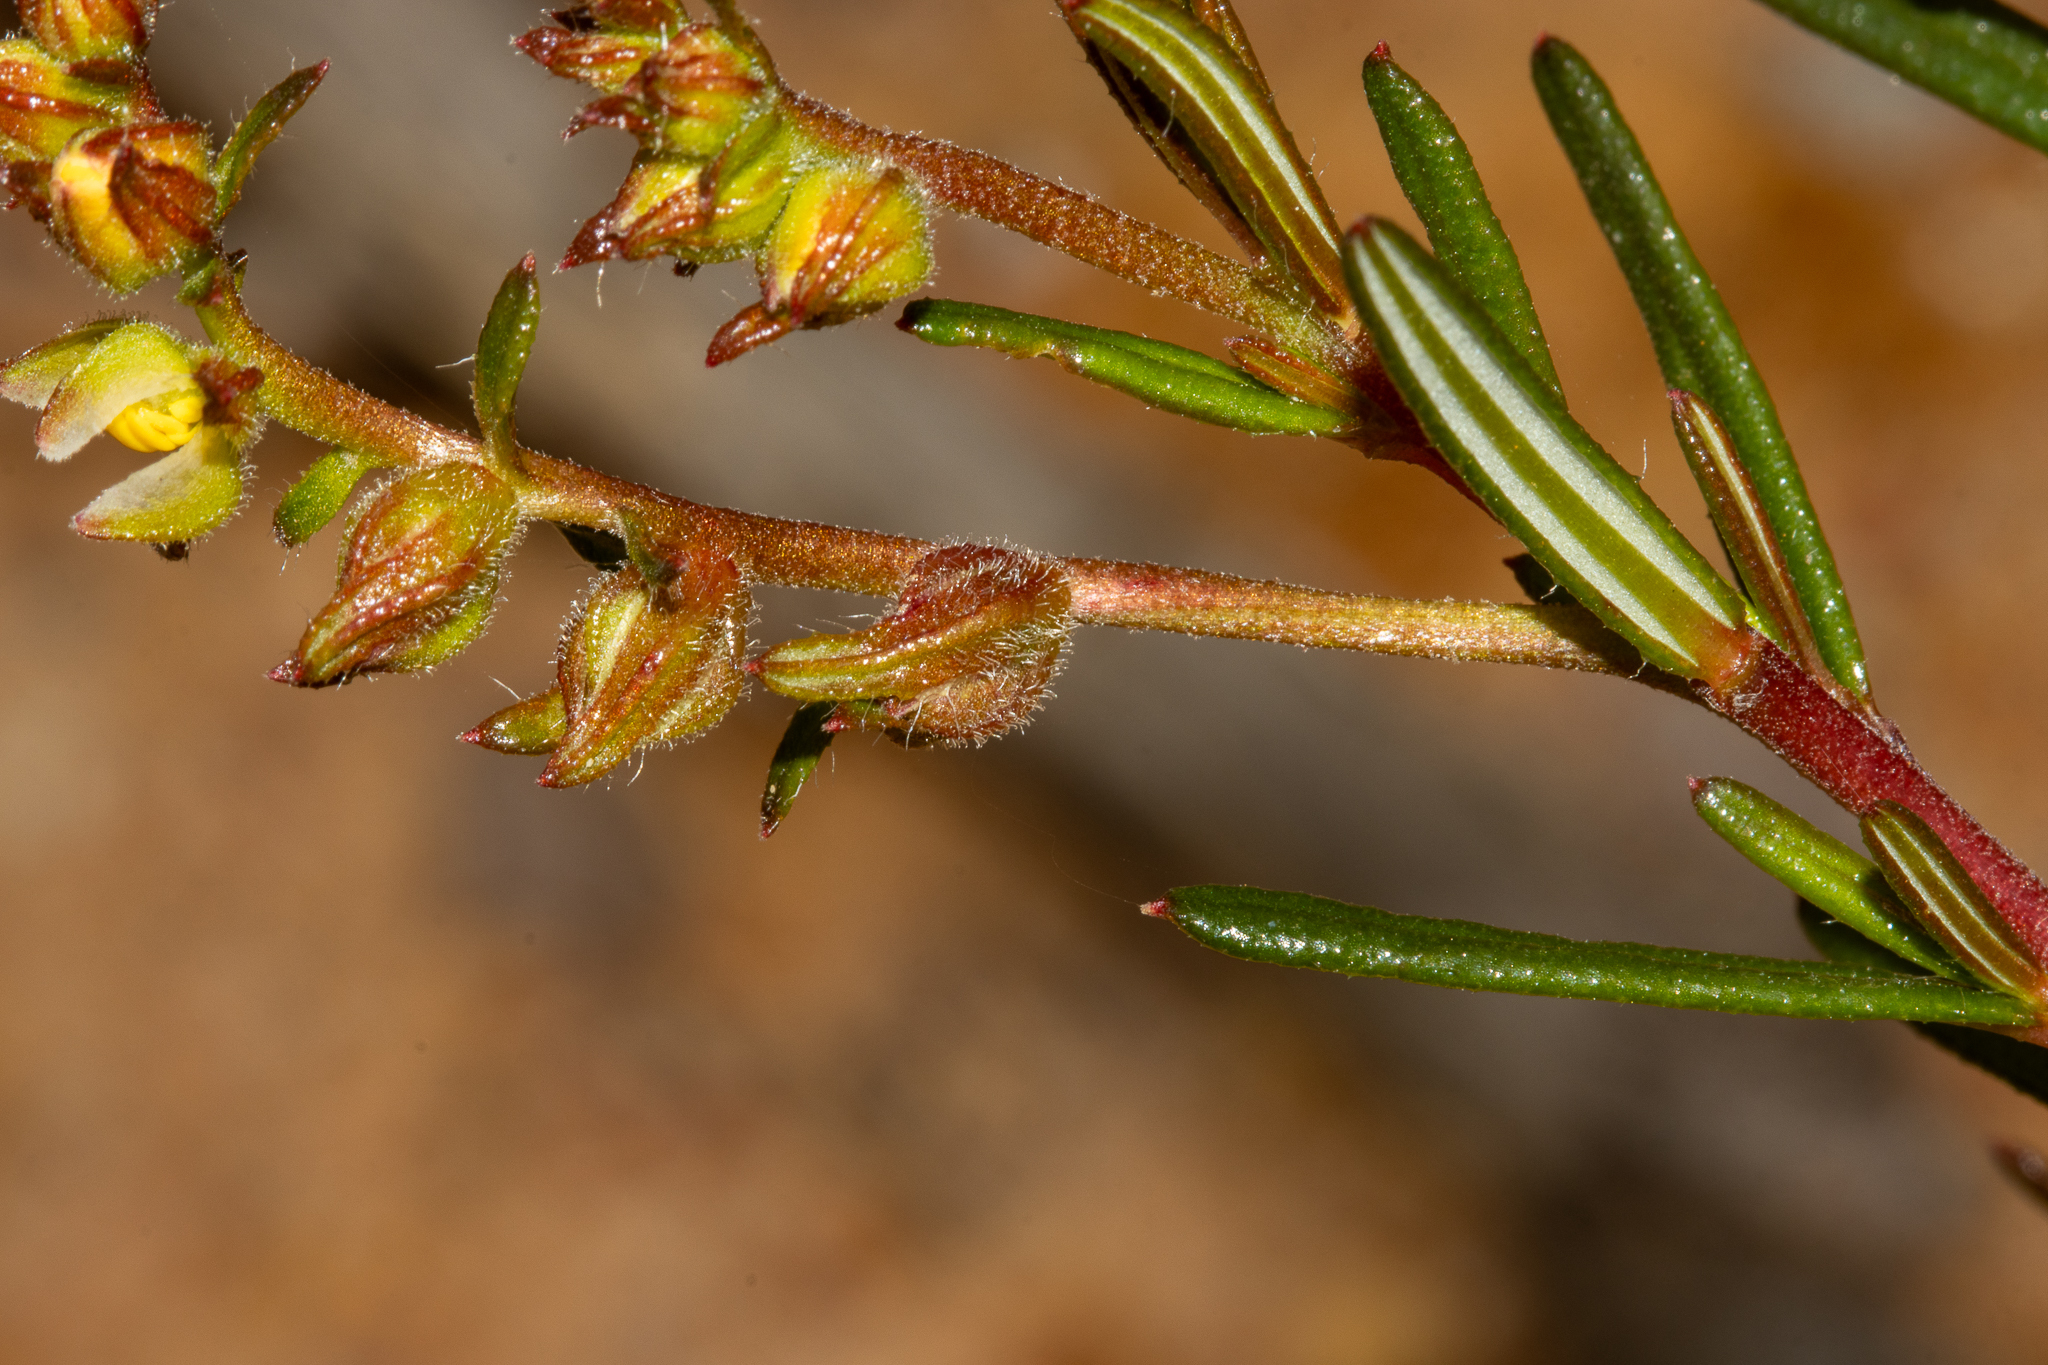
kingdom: Plantae
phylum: Tracheophyta
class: Magnoliopsida
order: Dilleniales
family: Dilleniaceae
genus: Hibbertia
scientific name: Hibbertia prolata
